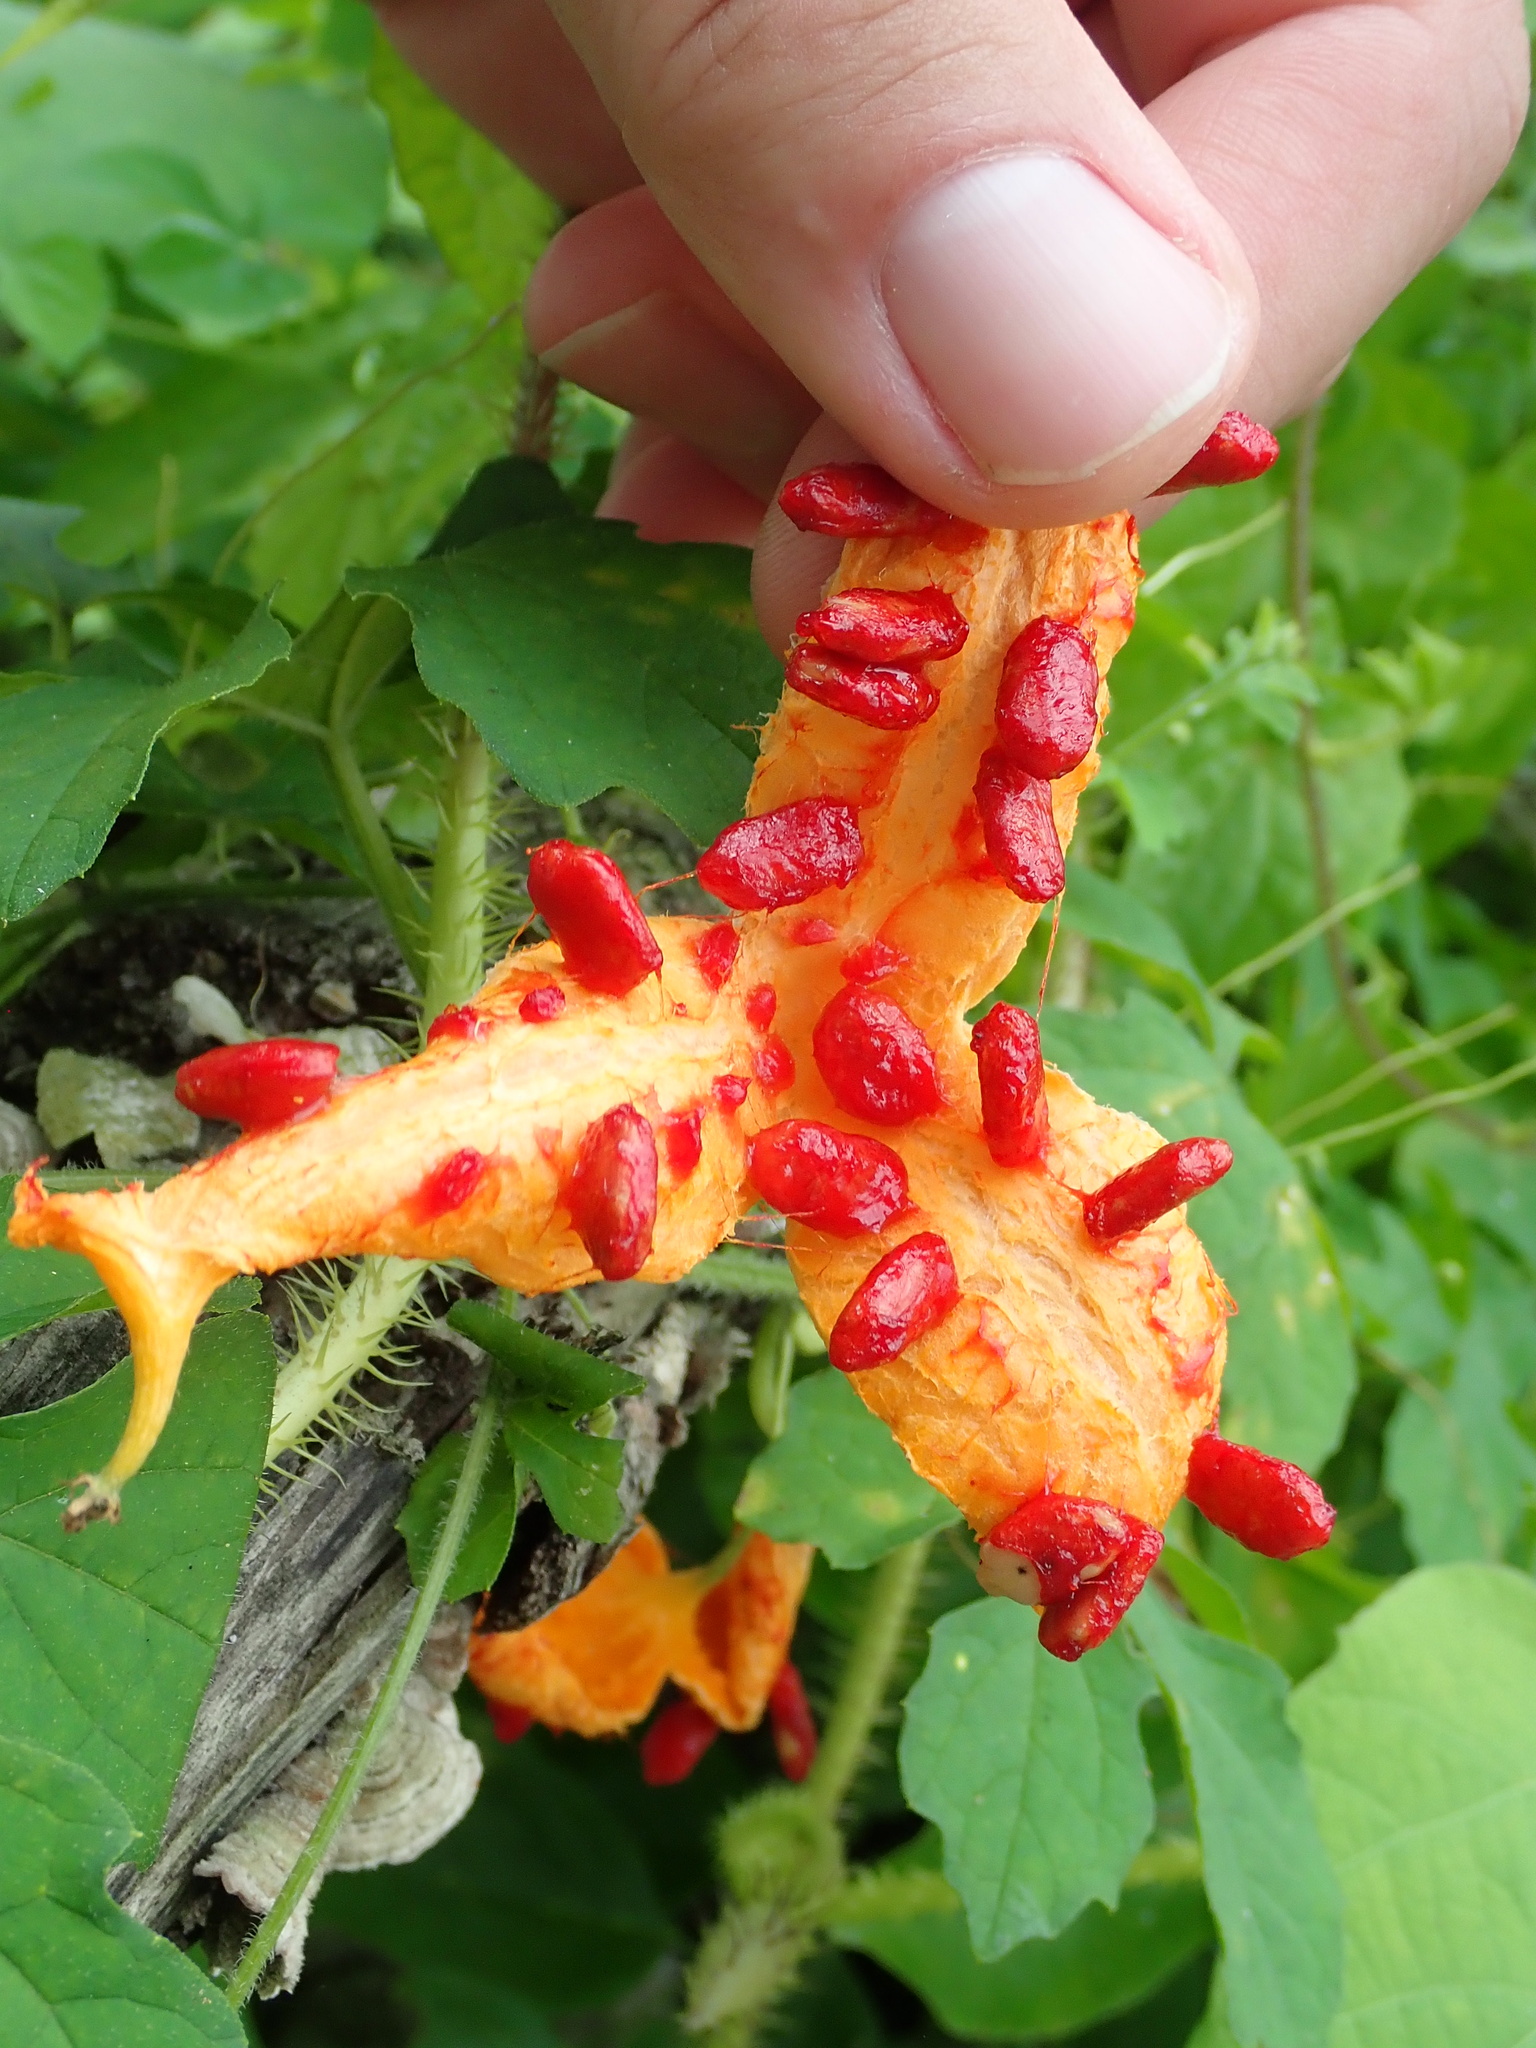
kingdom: Plantae
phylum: Tracheophyta
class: Magnoliopsida
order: Cucurbitales
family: Cucurbitaceae
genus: Momordica
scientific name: Momordica charantia
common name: Balsampear
